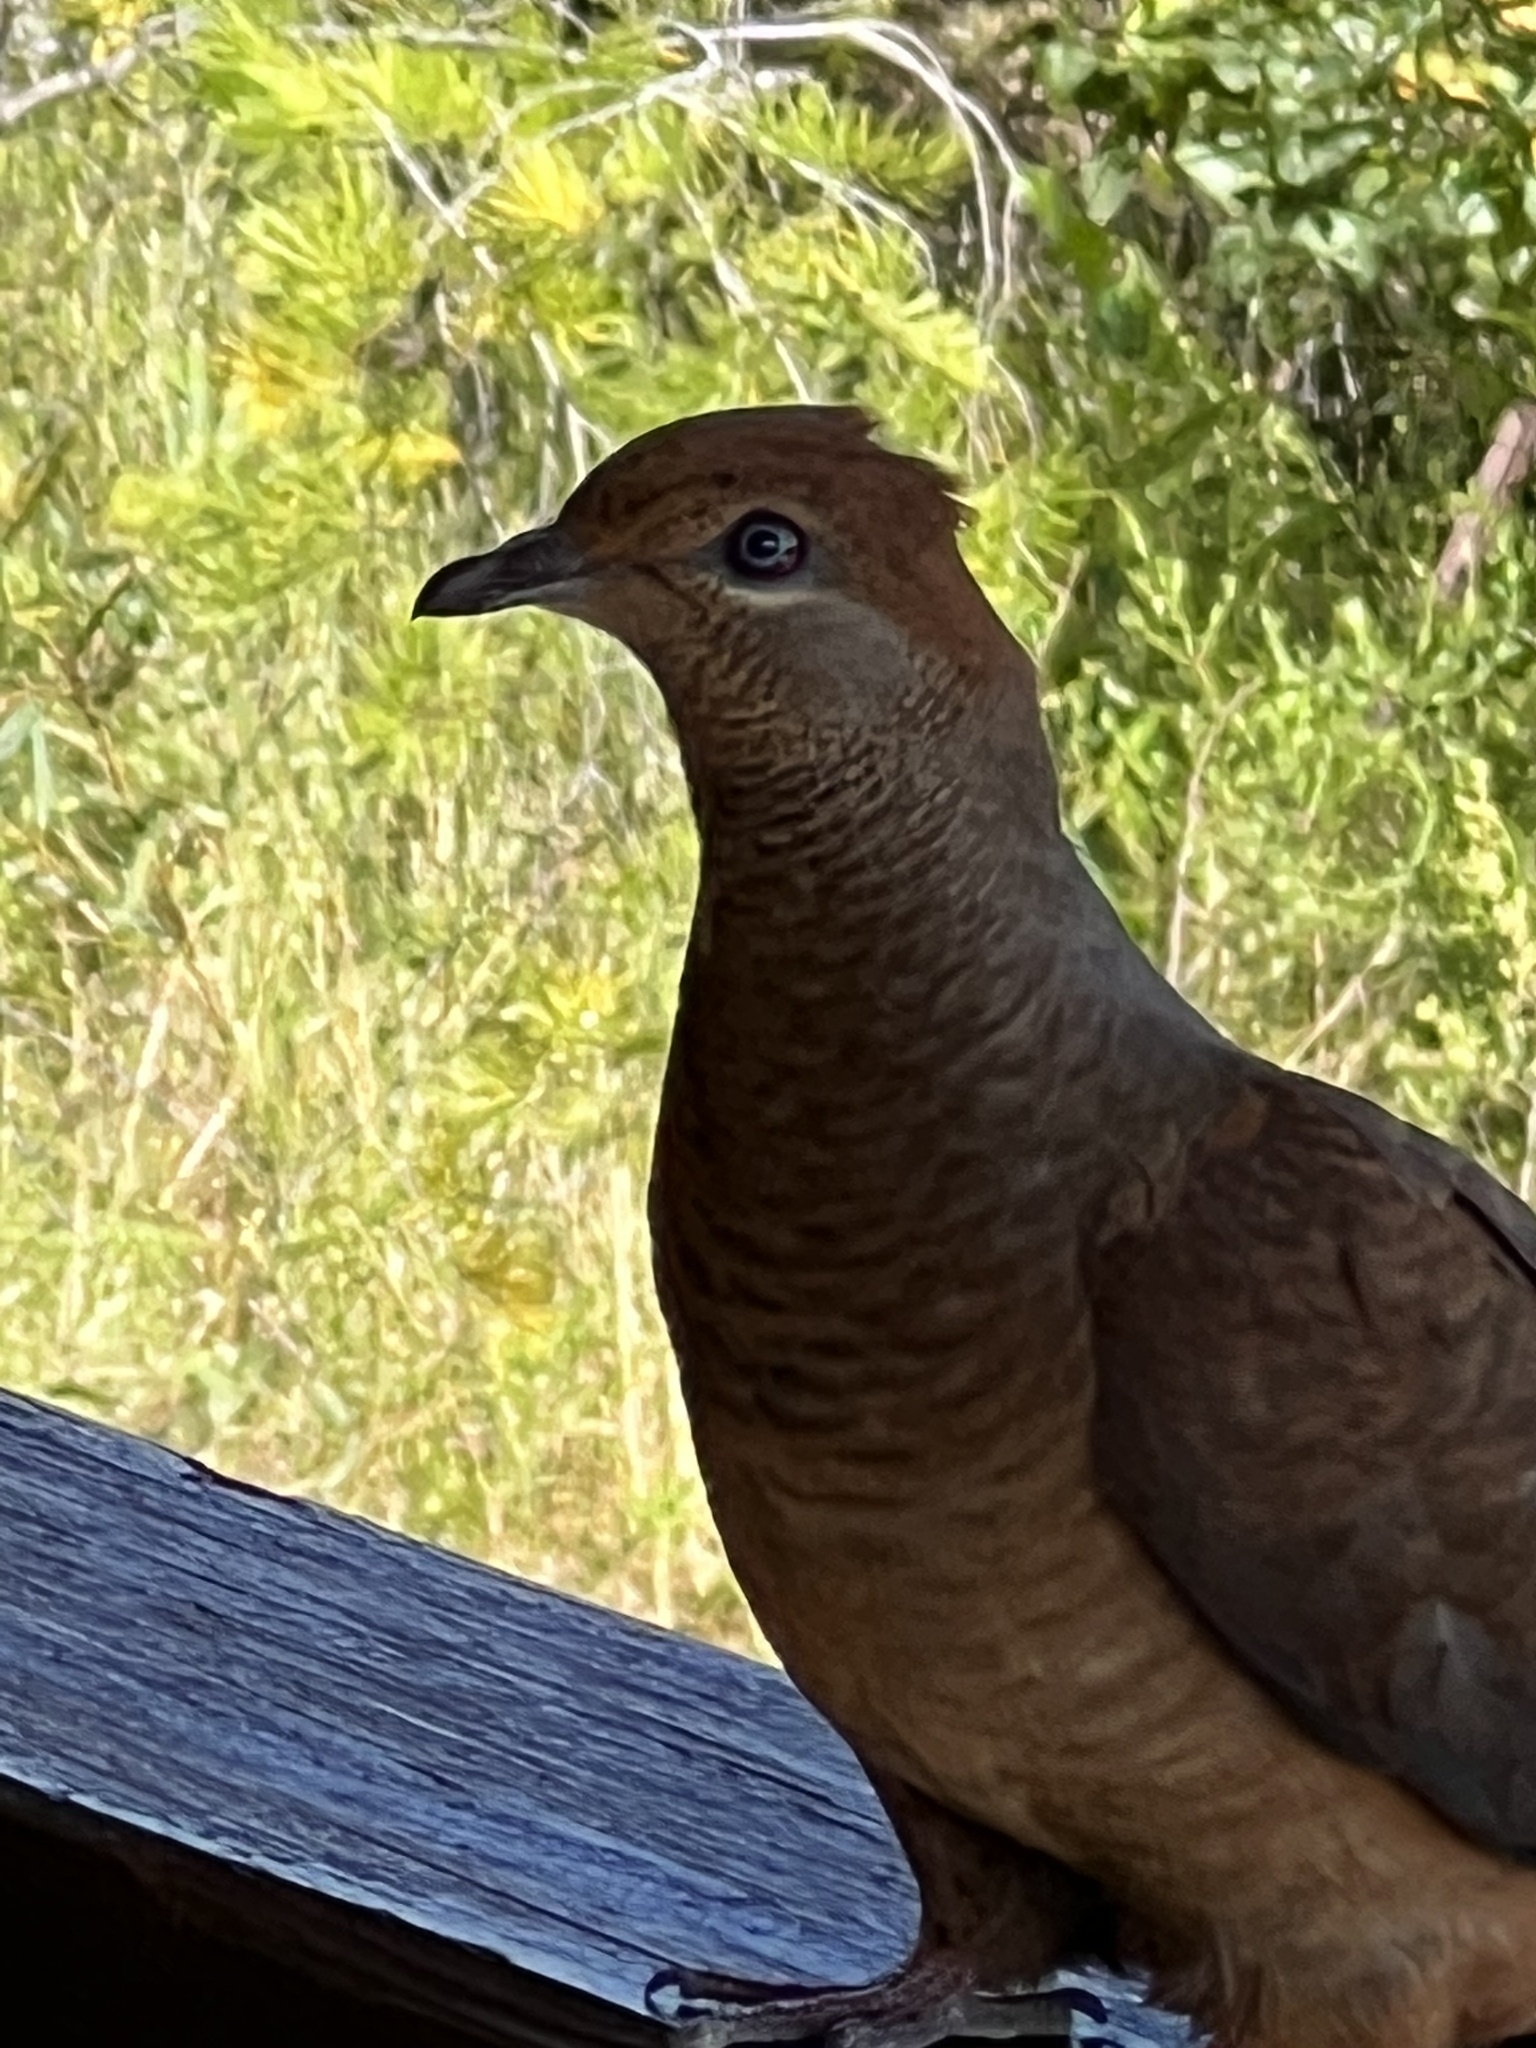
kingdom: Animalia
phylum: Chordata
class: Aves
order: Columbiformes
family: Columbidae
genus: Macropygia
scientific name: Macropygia phasianella
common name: Brown cuckoo-dove
